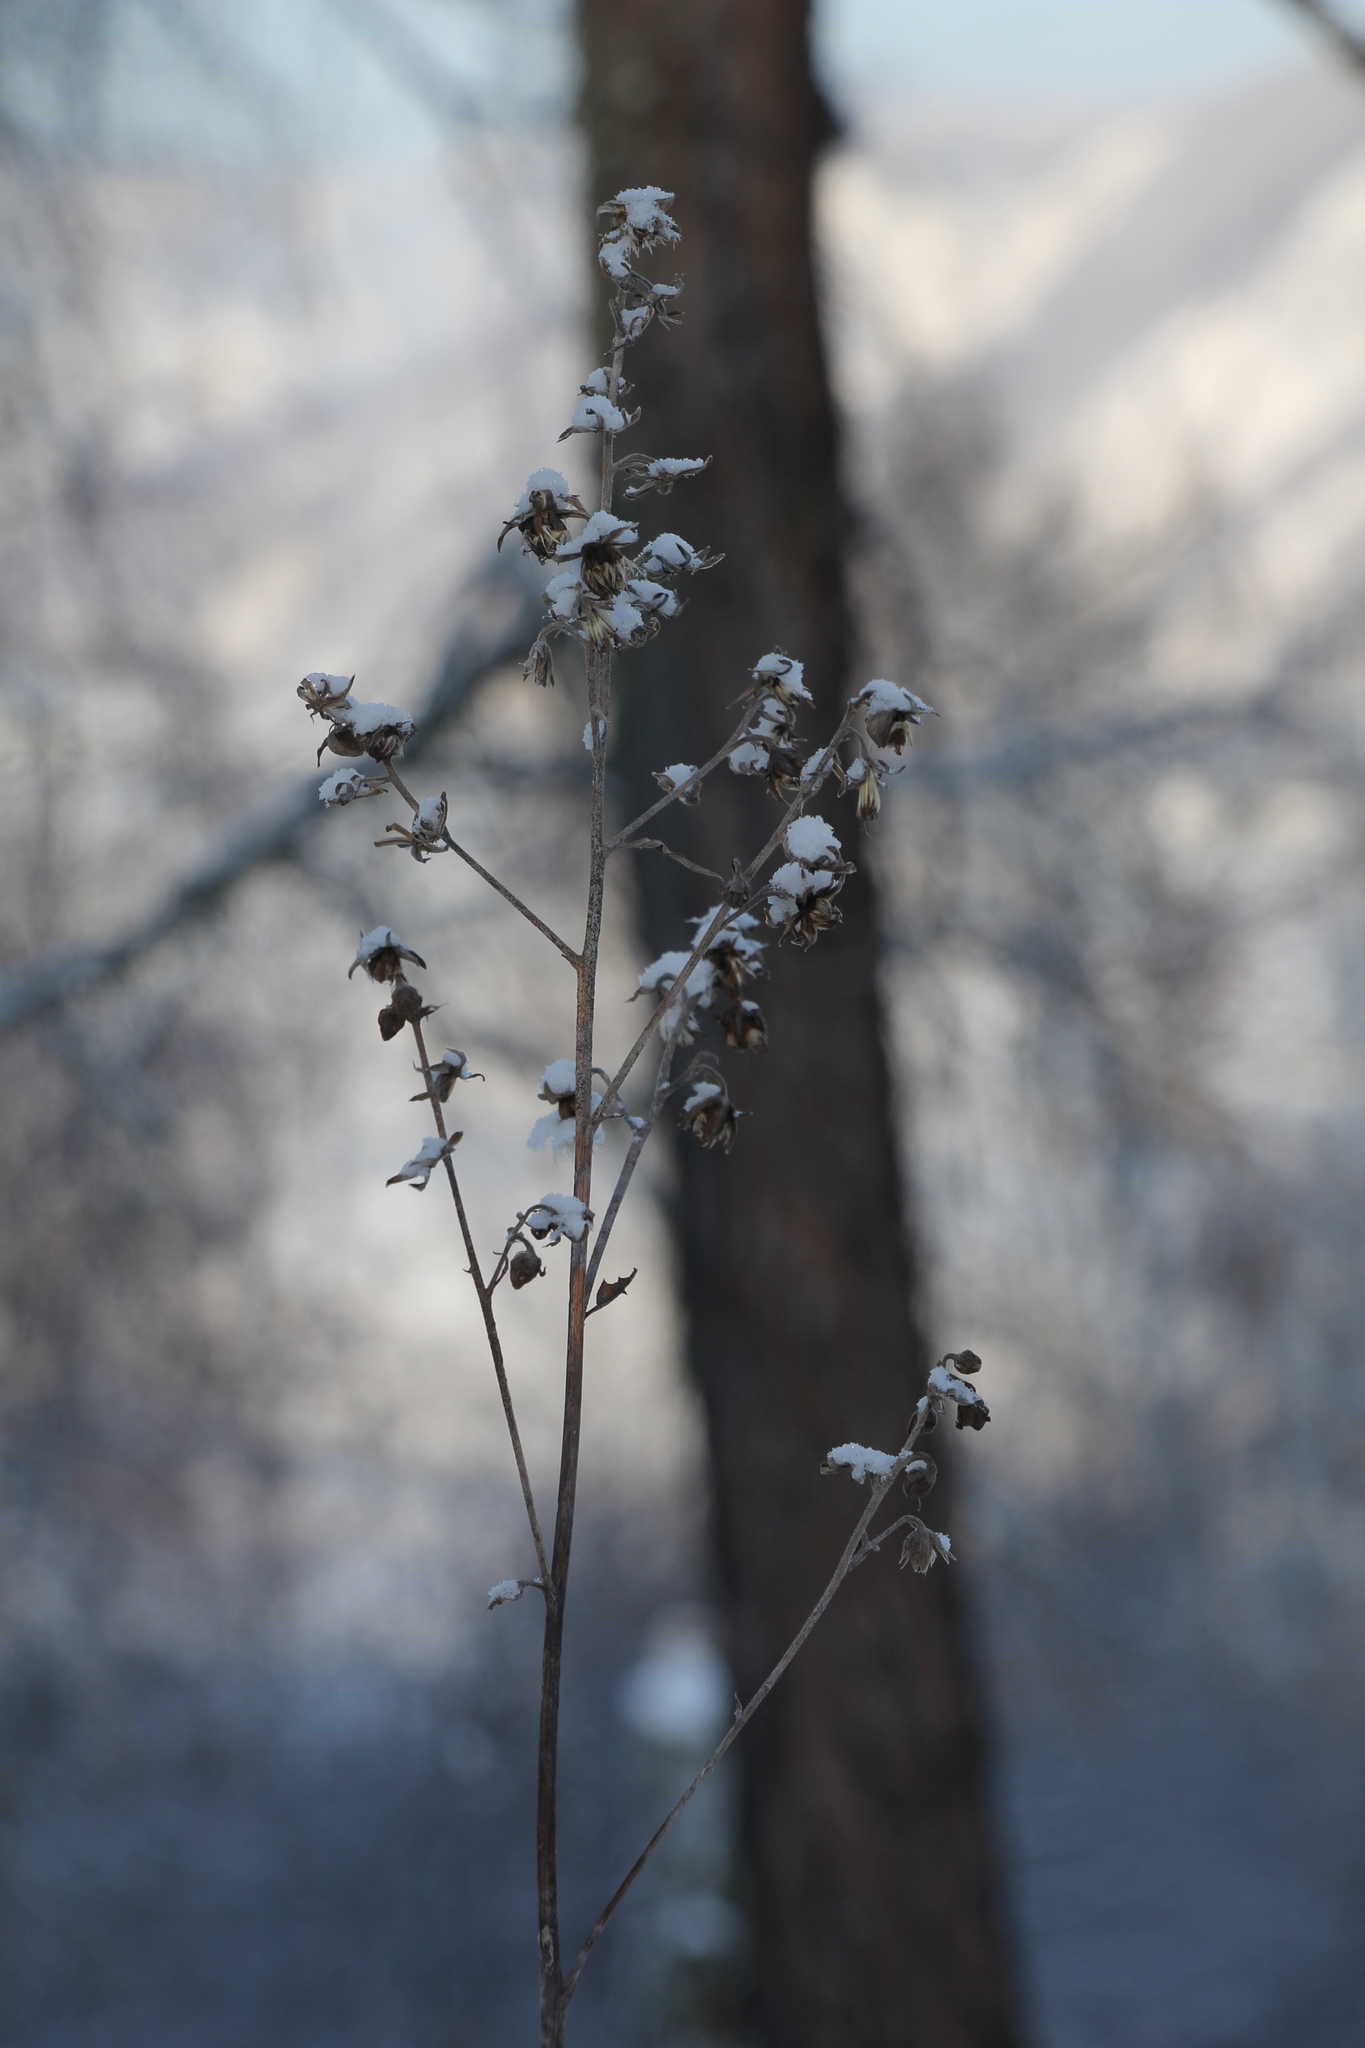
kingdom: Plantae
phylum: Tracheophyta
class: Magnoliopsida
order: Asterales
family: Asteraceae
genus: Parasenecio
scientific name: Parasenecio hastatus
